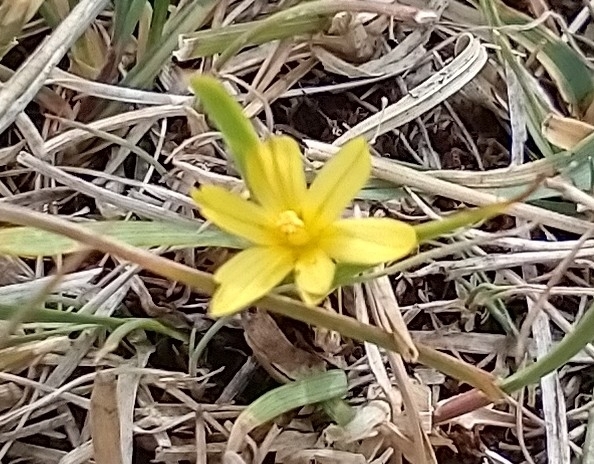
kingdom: Plantae
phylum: Tracheophyta
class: Liliopsida
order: Asparagales
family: Iridaceae
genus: Sisyrinchium
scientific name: Sisyrinchium patagonicum
